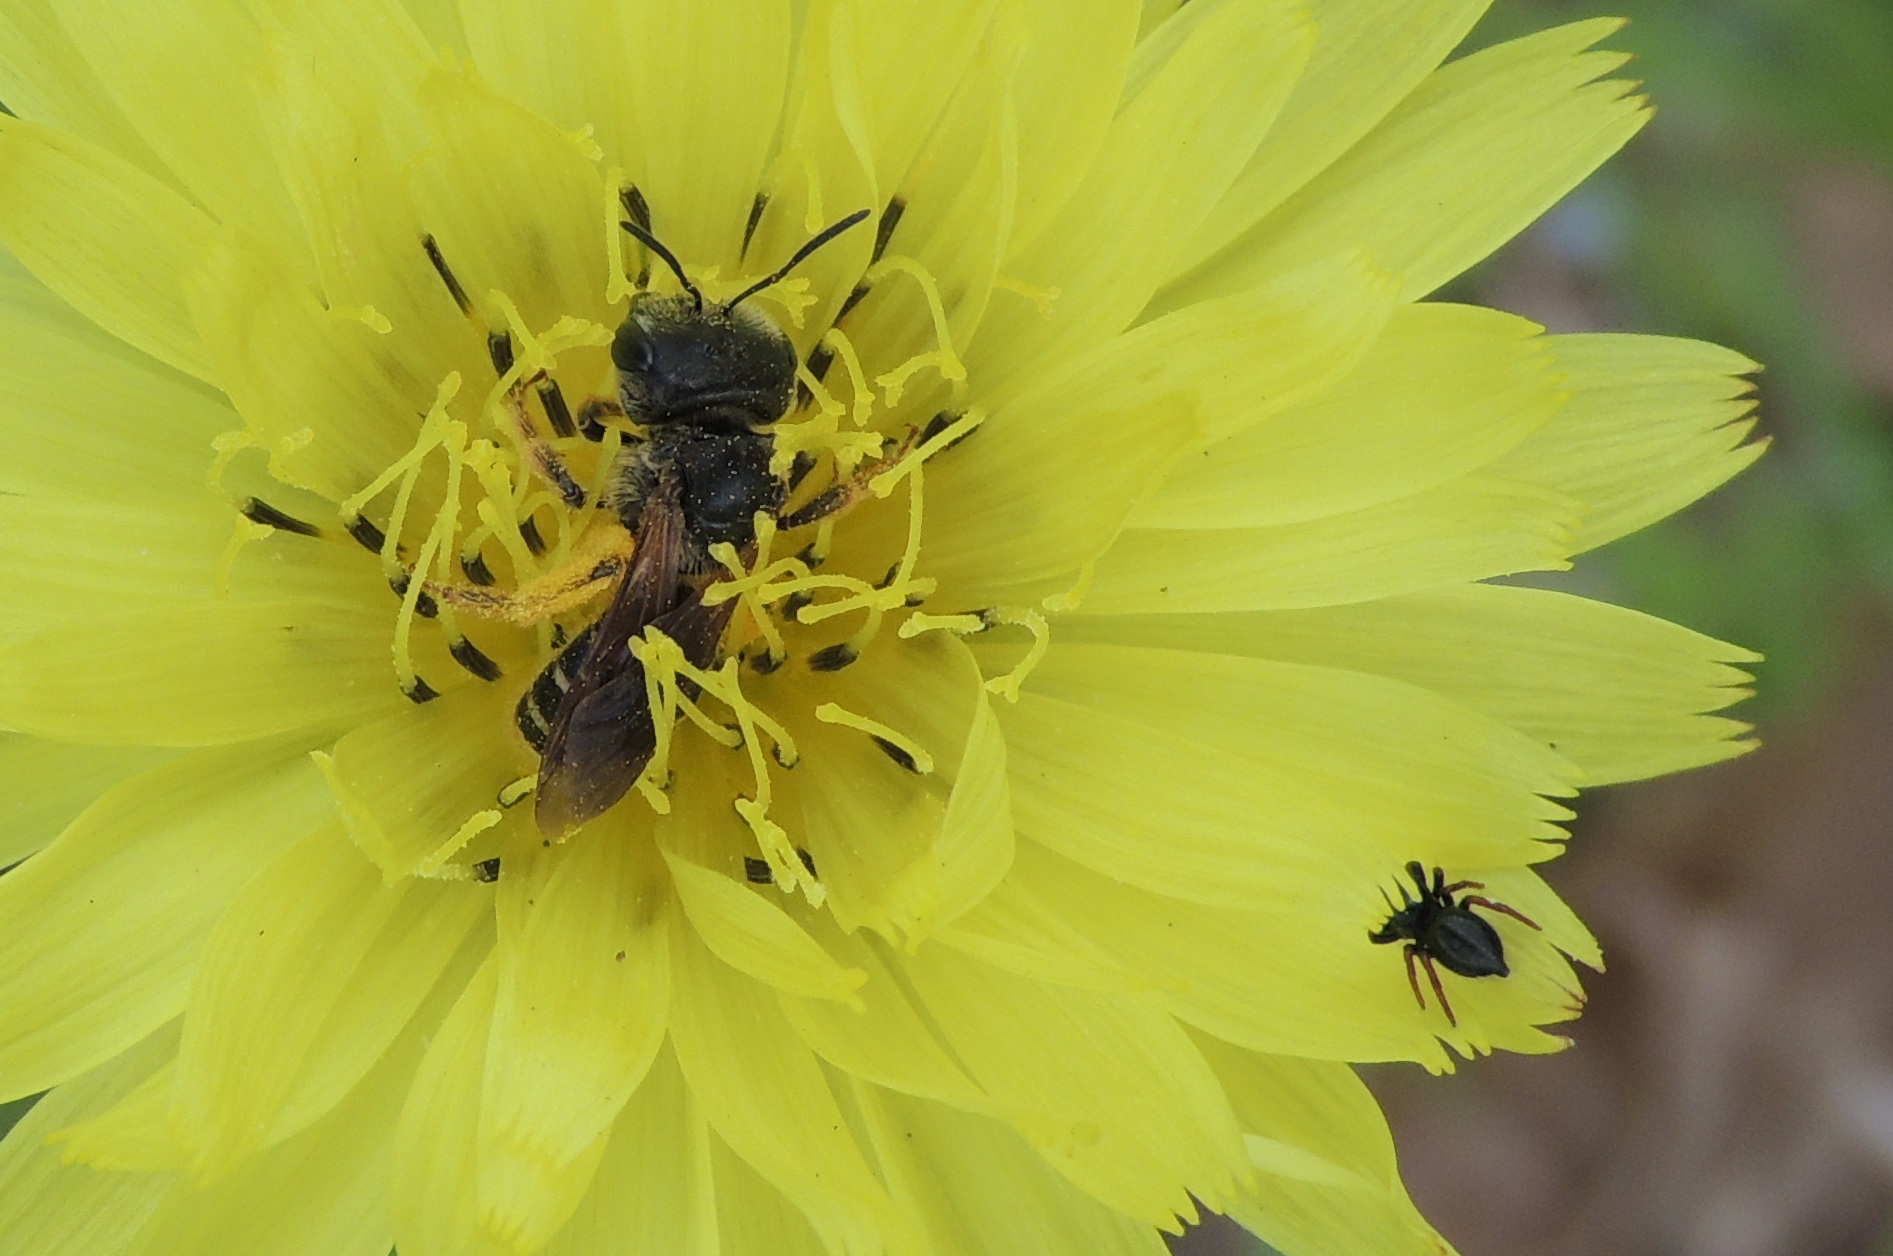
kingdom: Animalia
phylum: Arthropoda
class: Insecta
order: Hymenoptera
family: Halictidae
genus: Halictus
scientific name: Halictus poeyi
